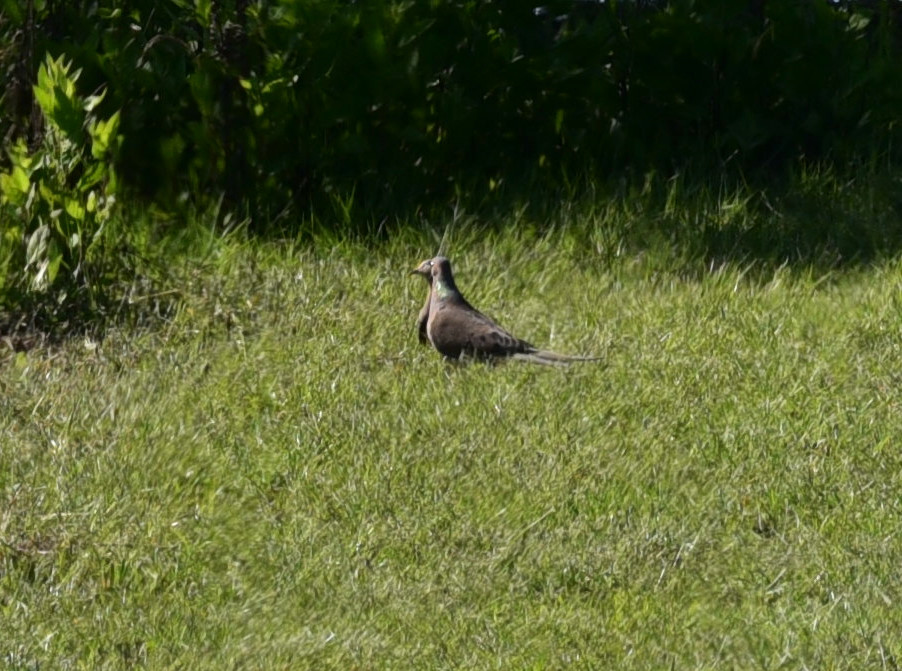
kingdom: Animalia
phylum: Chordata
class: Aves
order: Columbiformes
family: Columbidae
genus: Zenaida
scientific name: Zenaida macroura
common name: Mourning dove
